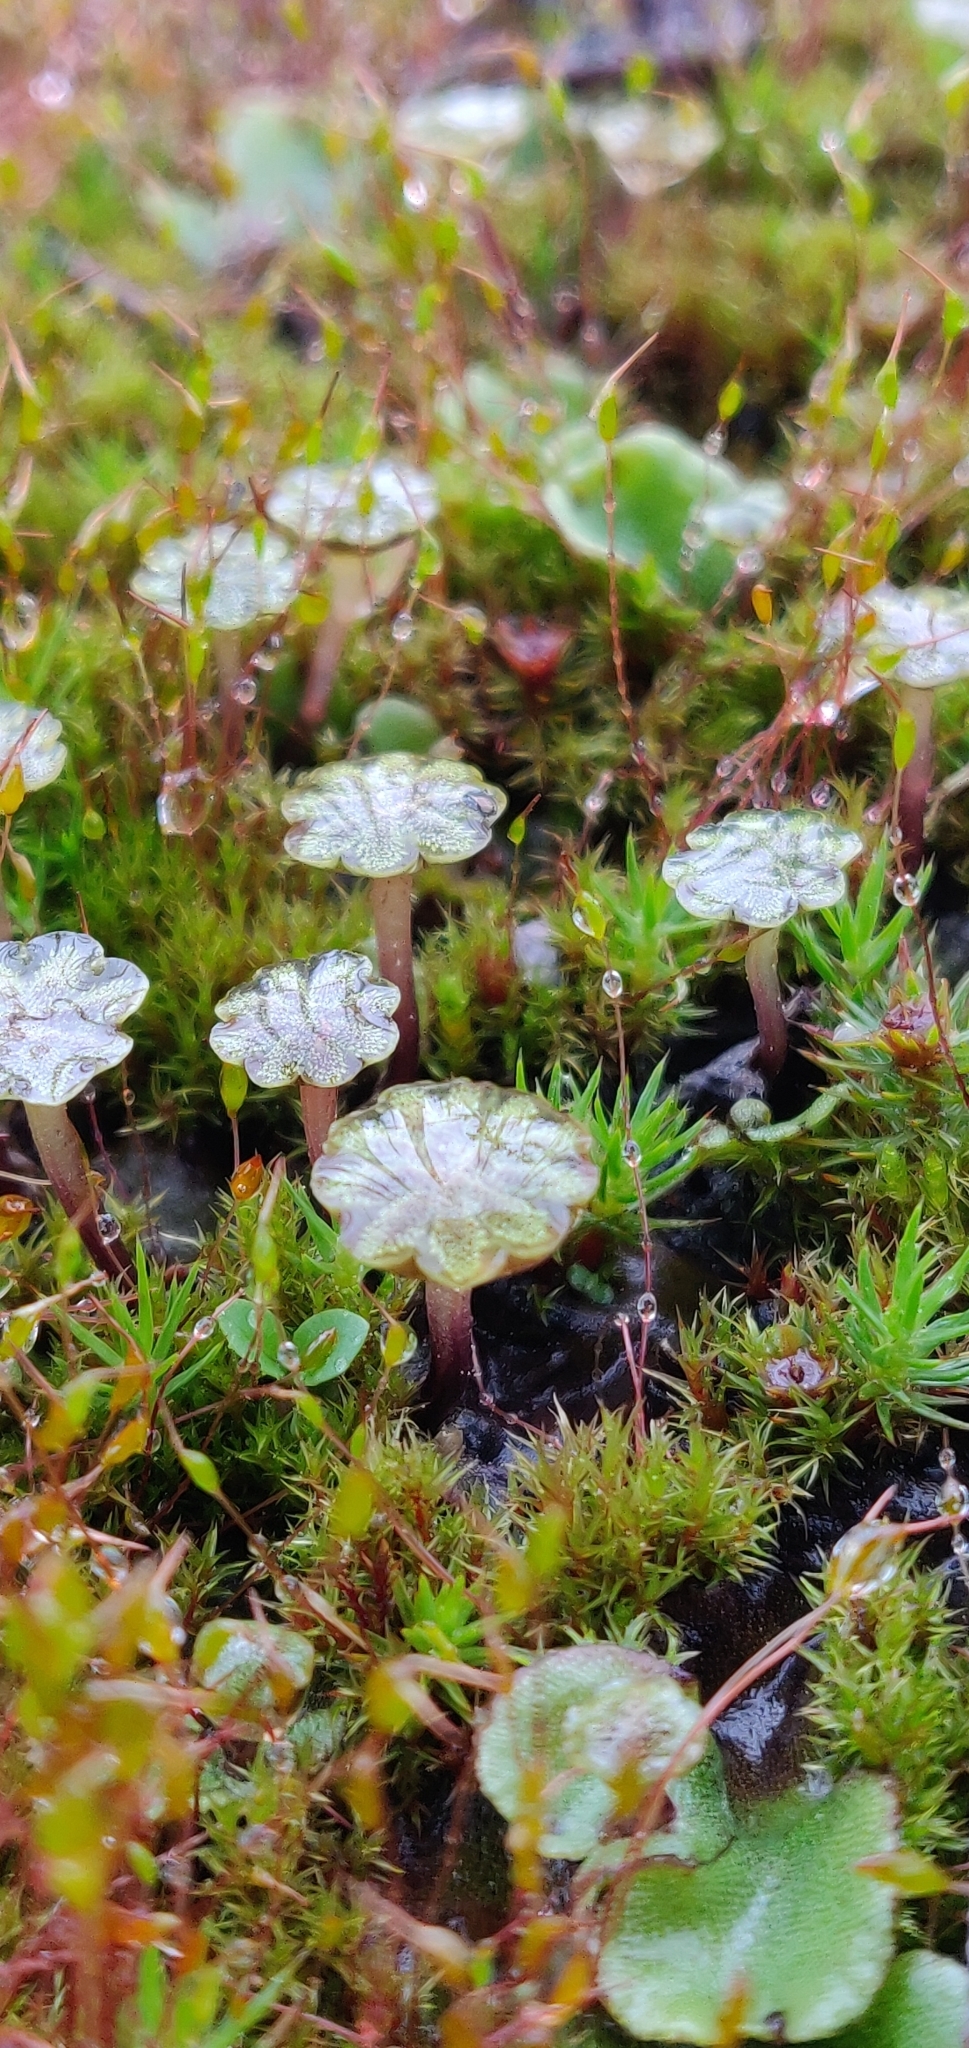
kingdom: Plantae
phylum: Marchantiophyta
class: Marchantiopsida
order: Marchantiales
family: Marchantiaceae
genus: Marchantia
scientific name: Marchantia polymorpha
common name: Common liverwort
